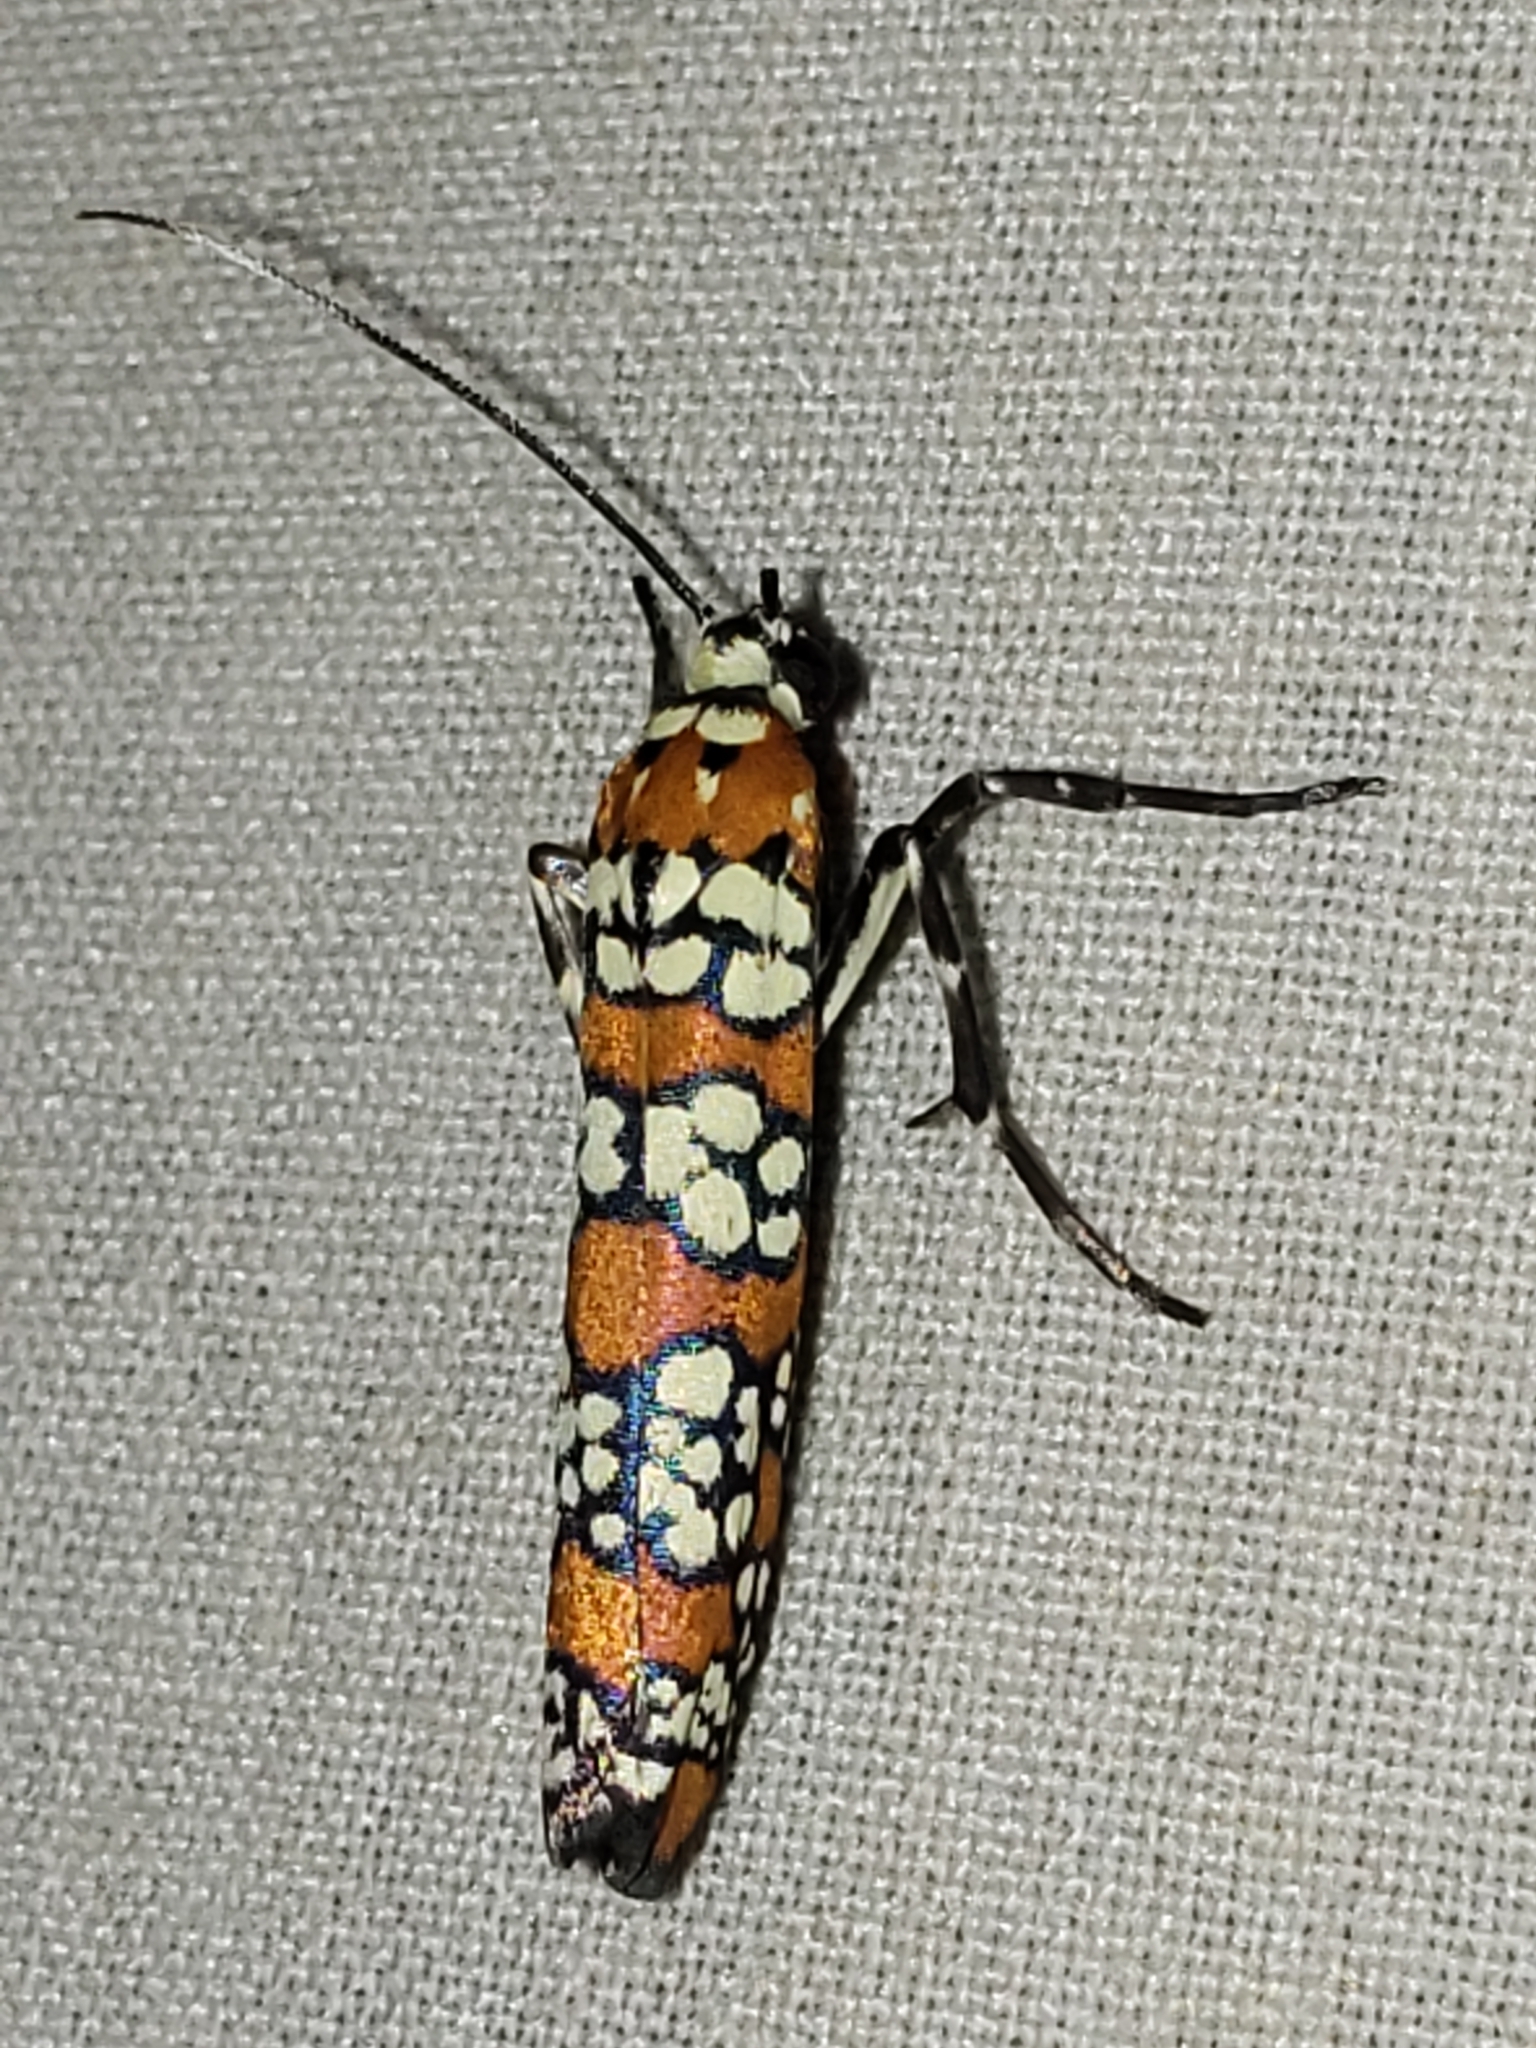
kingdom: Animalia
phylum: Arthropoda
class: Insecta
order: Lepidoptera
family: Attevidae
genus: Atteva
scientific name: Atteva punctella
